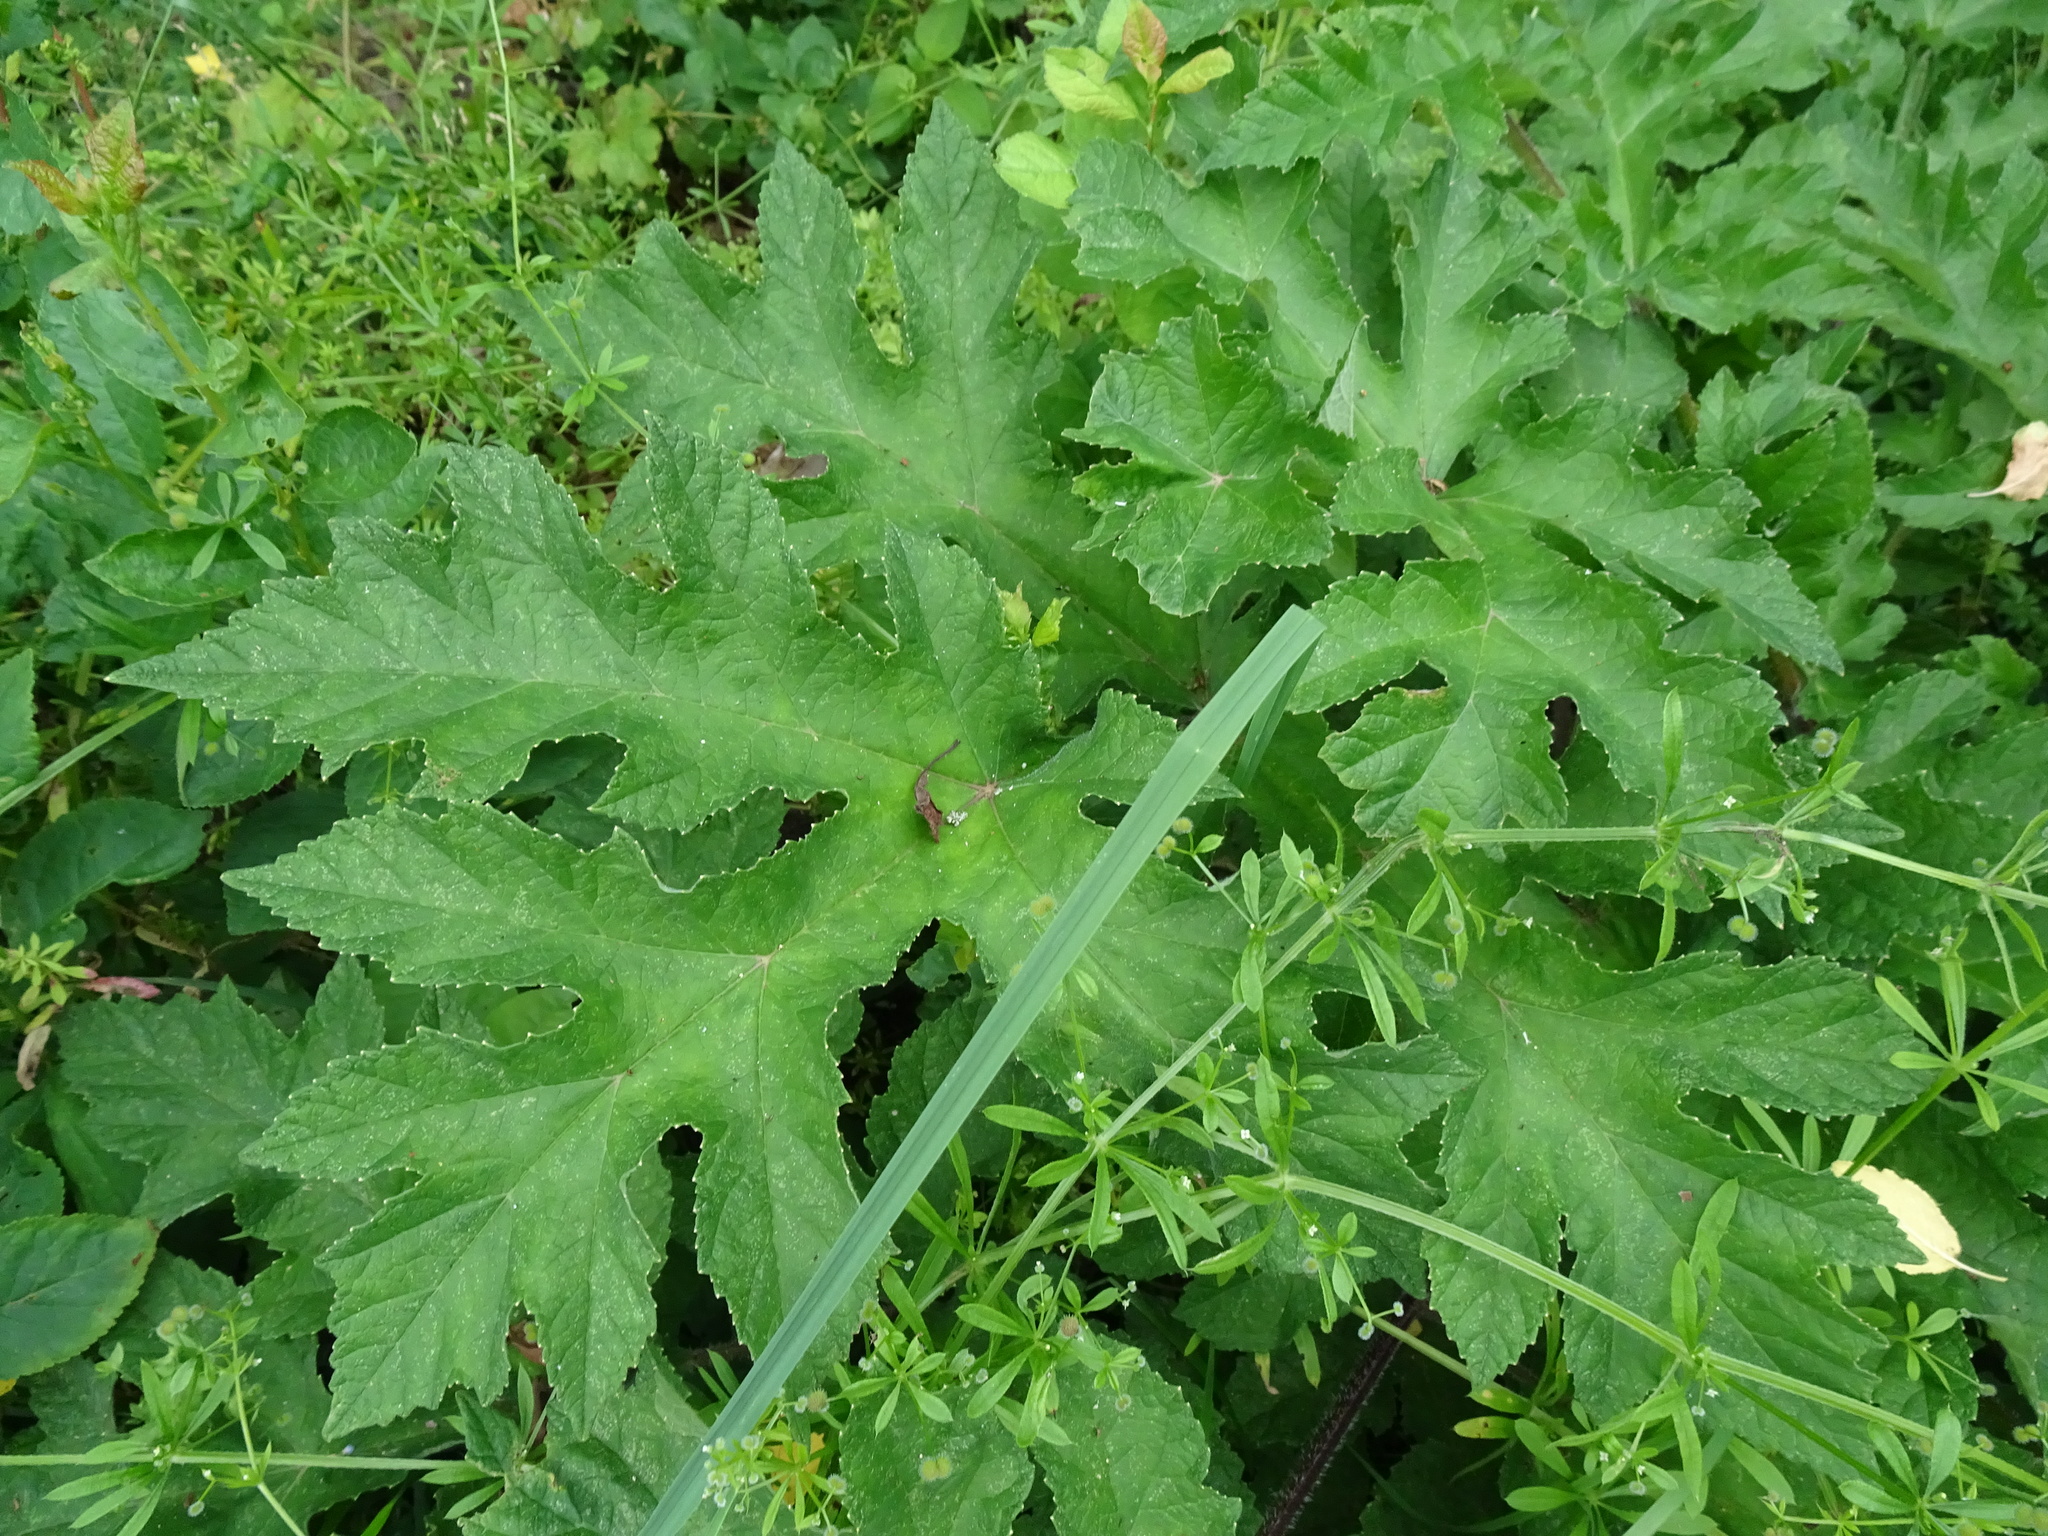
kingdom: Plantae
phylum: Tracheophyta
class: Magnoliopsida
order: Apiales
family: Apiaceae
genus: Heracleum
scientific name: Heracleum sphondylium
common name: Hogweed
